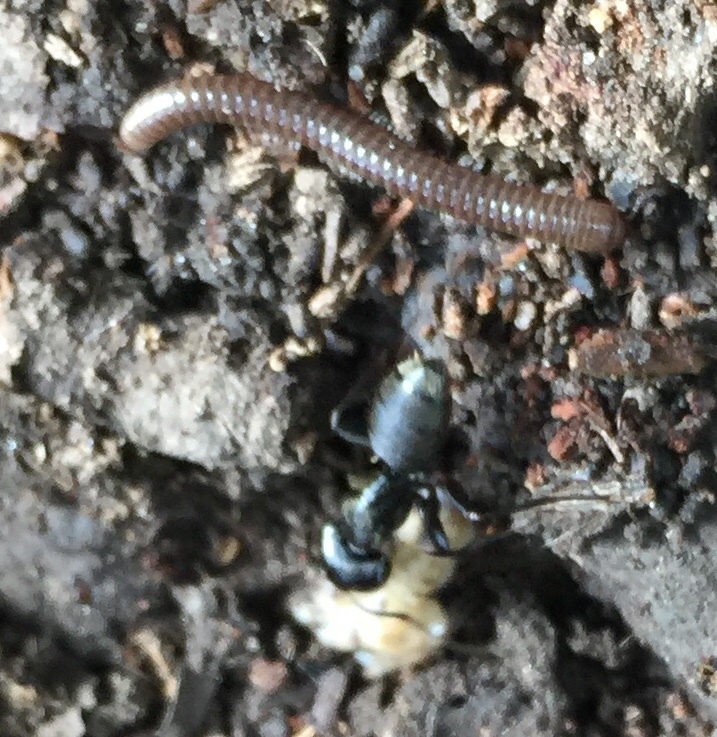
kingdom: Animalia
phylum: Arthropoda
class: Insecta
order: Hymenoptera
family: Formicidae
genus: Camponotus
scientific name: Camponotus pennsylvanicus
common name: Black carpenter ant
